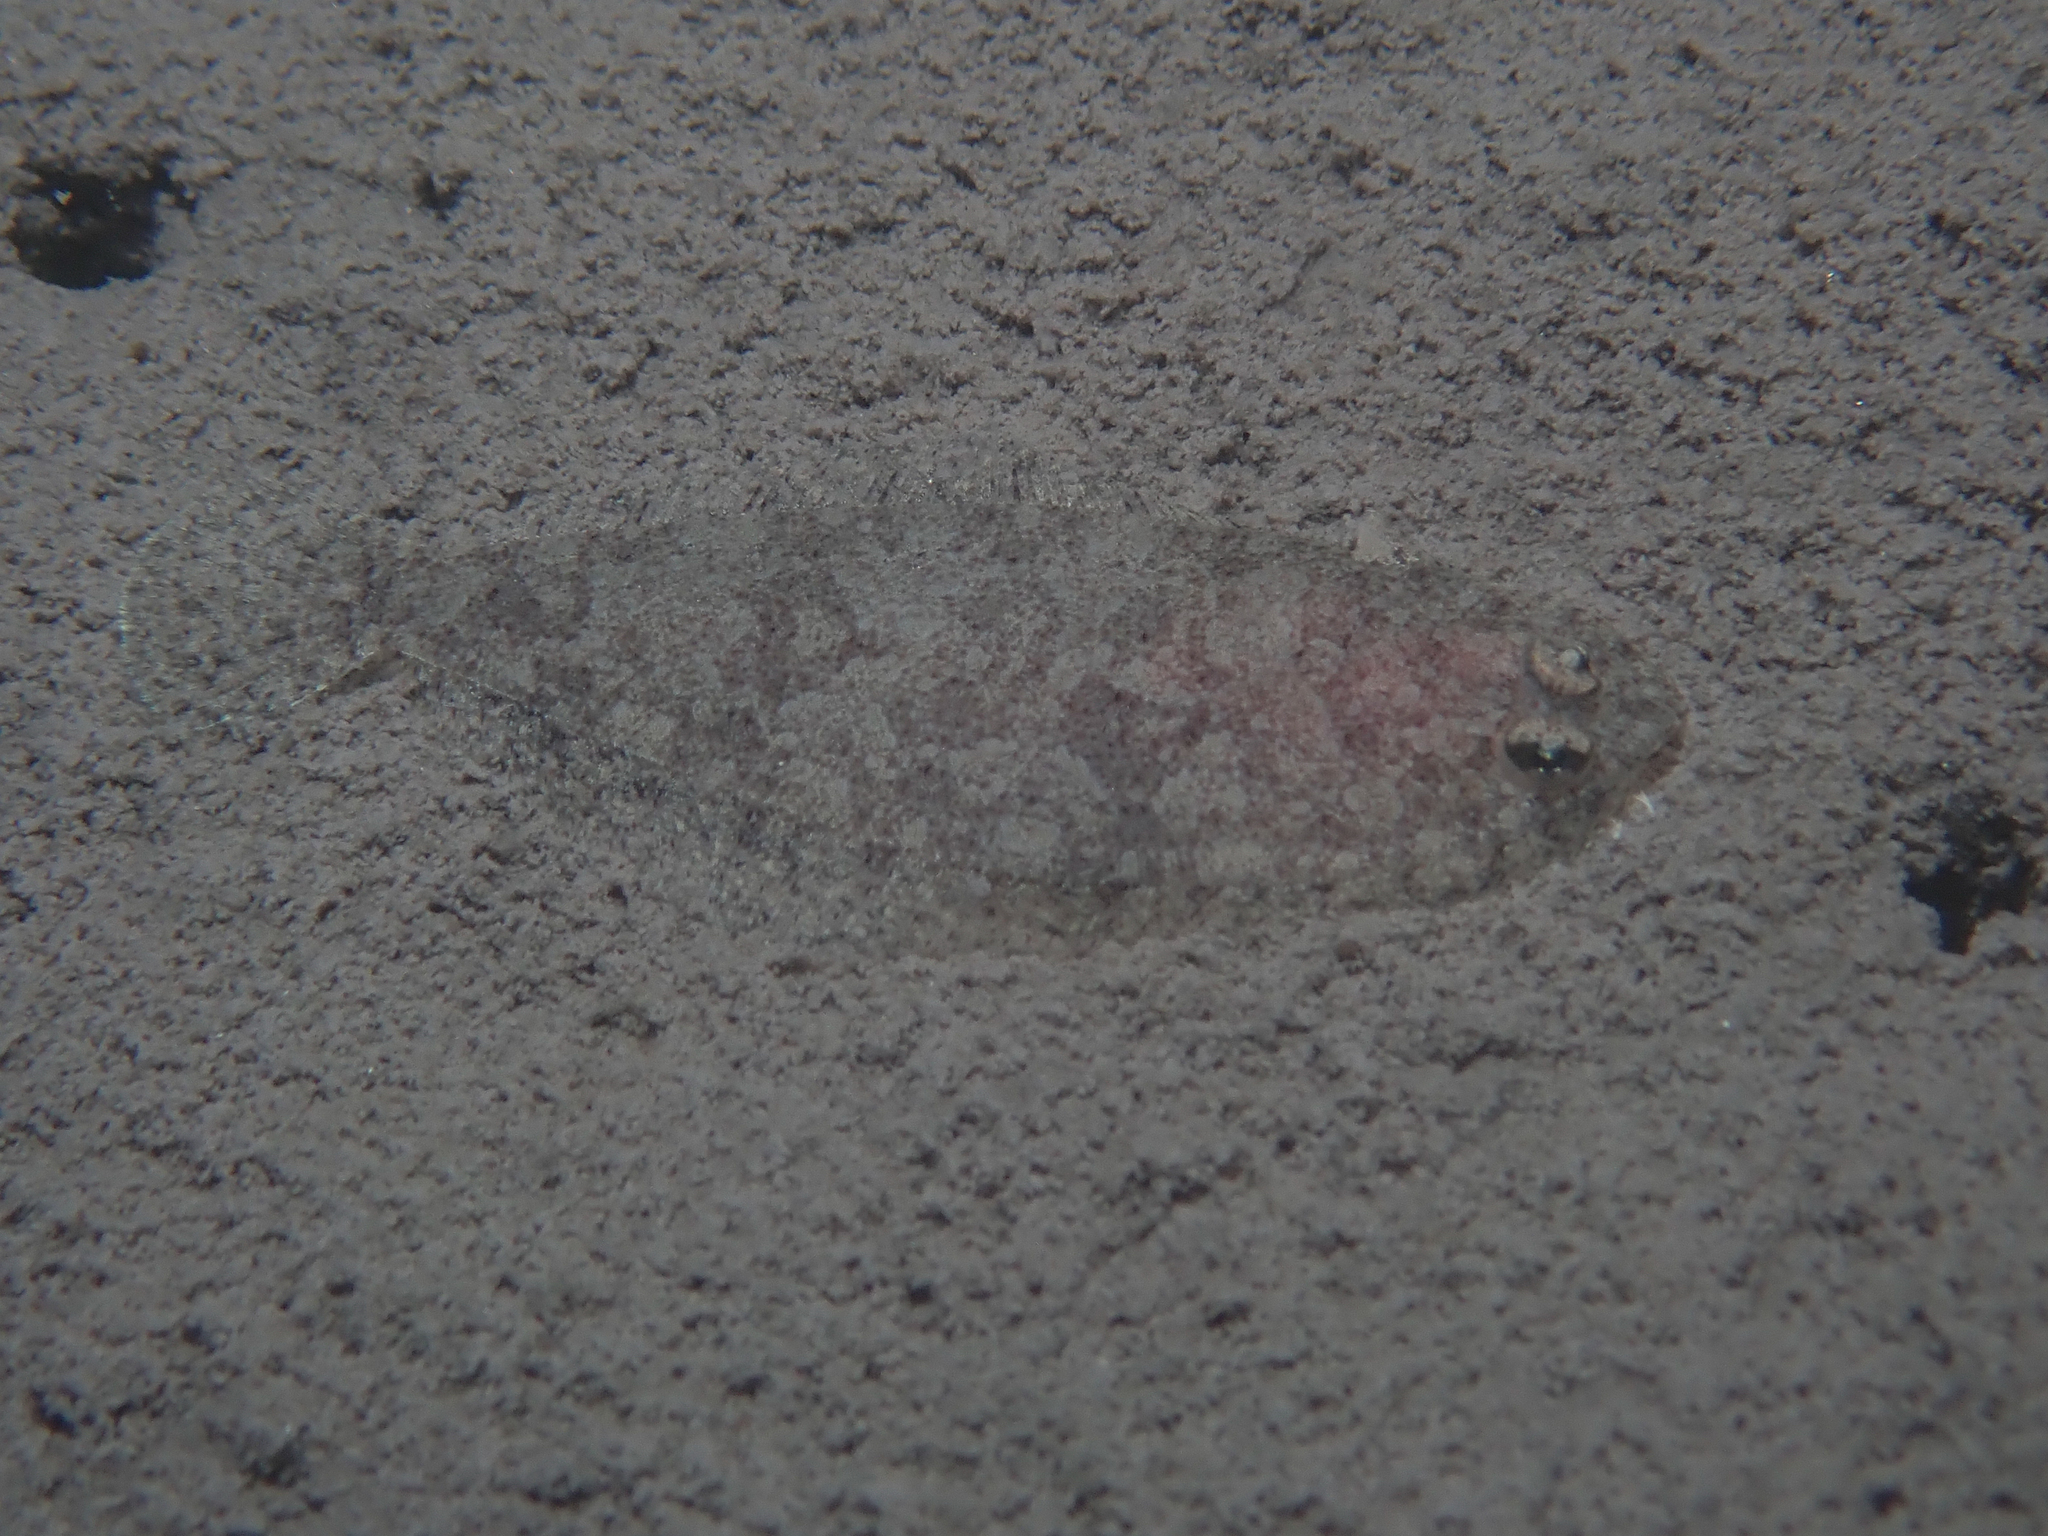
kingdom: Animalia
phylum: Chordata
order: Pleuronectiformes
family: Bothidae
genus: Arnoglossus
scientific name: Arnoglossus laterna
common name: Scaldfish
